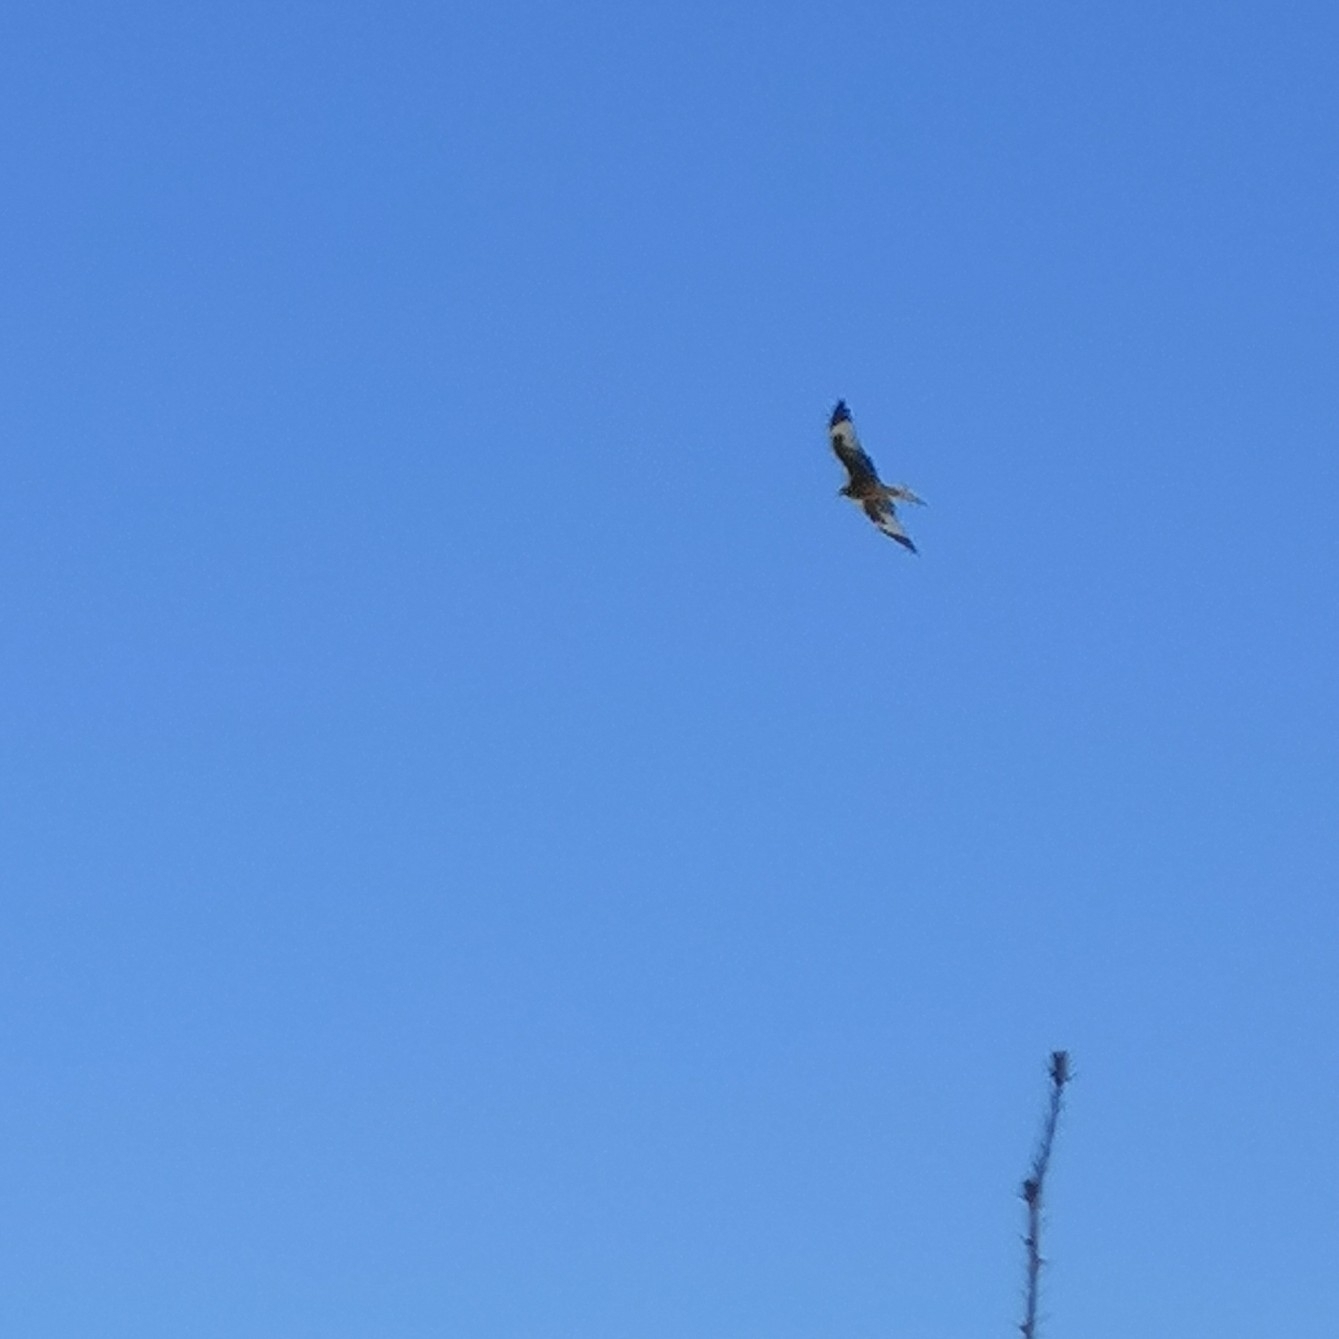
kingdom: Animalia
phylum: Chordata
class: Aves
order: Accipitriformes
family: Accipitridae
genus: Milvus
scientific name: Milvus milvus
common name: Red kite
